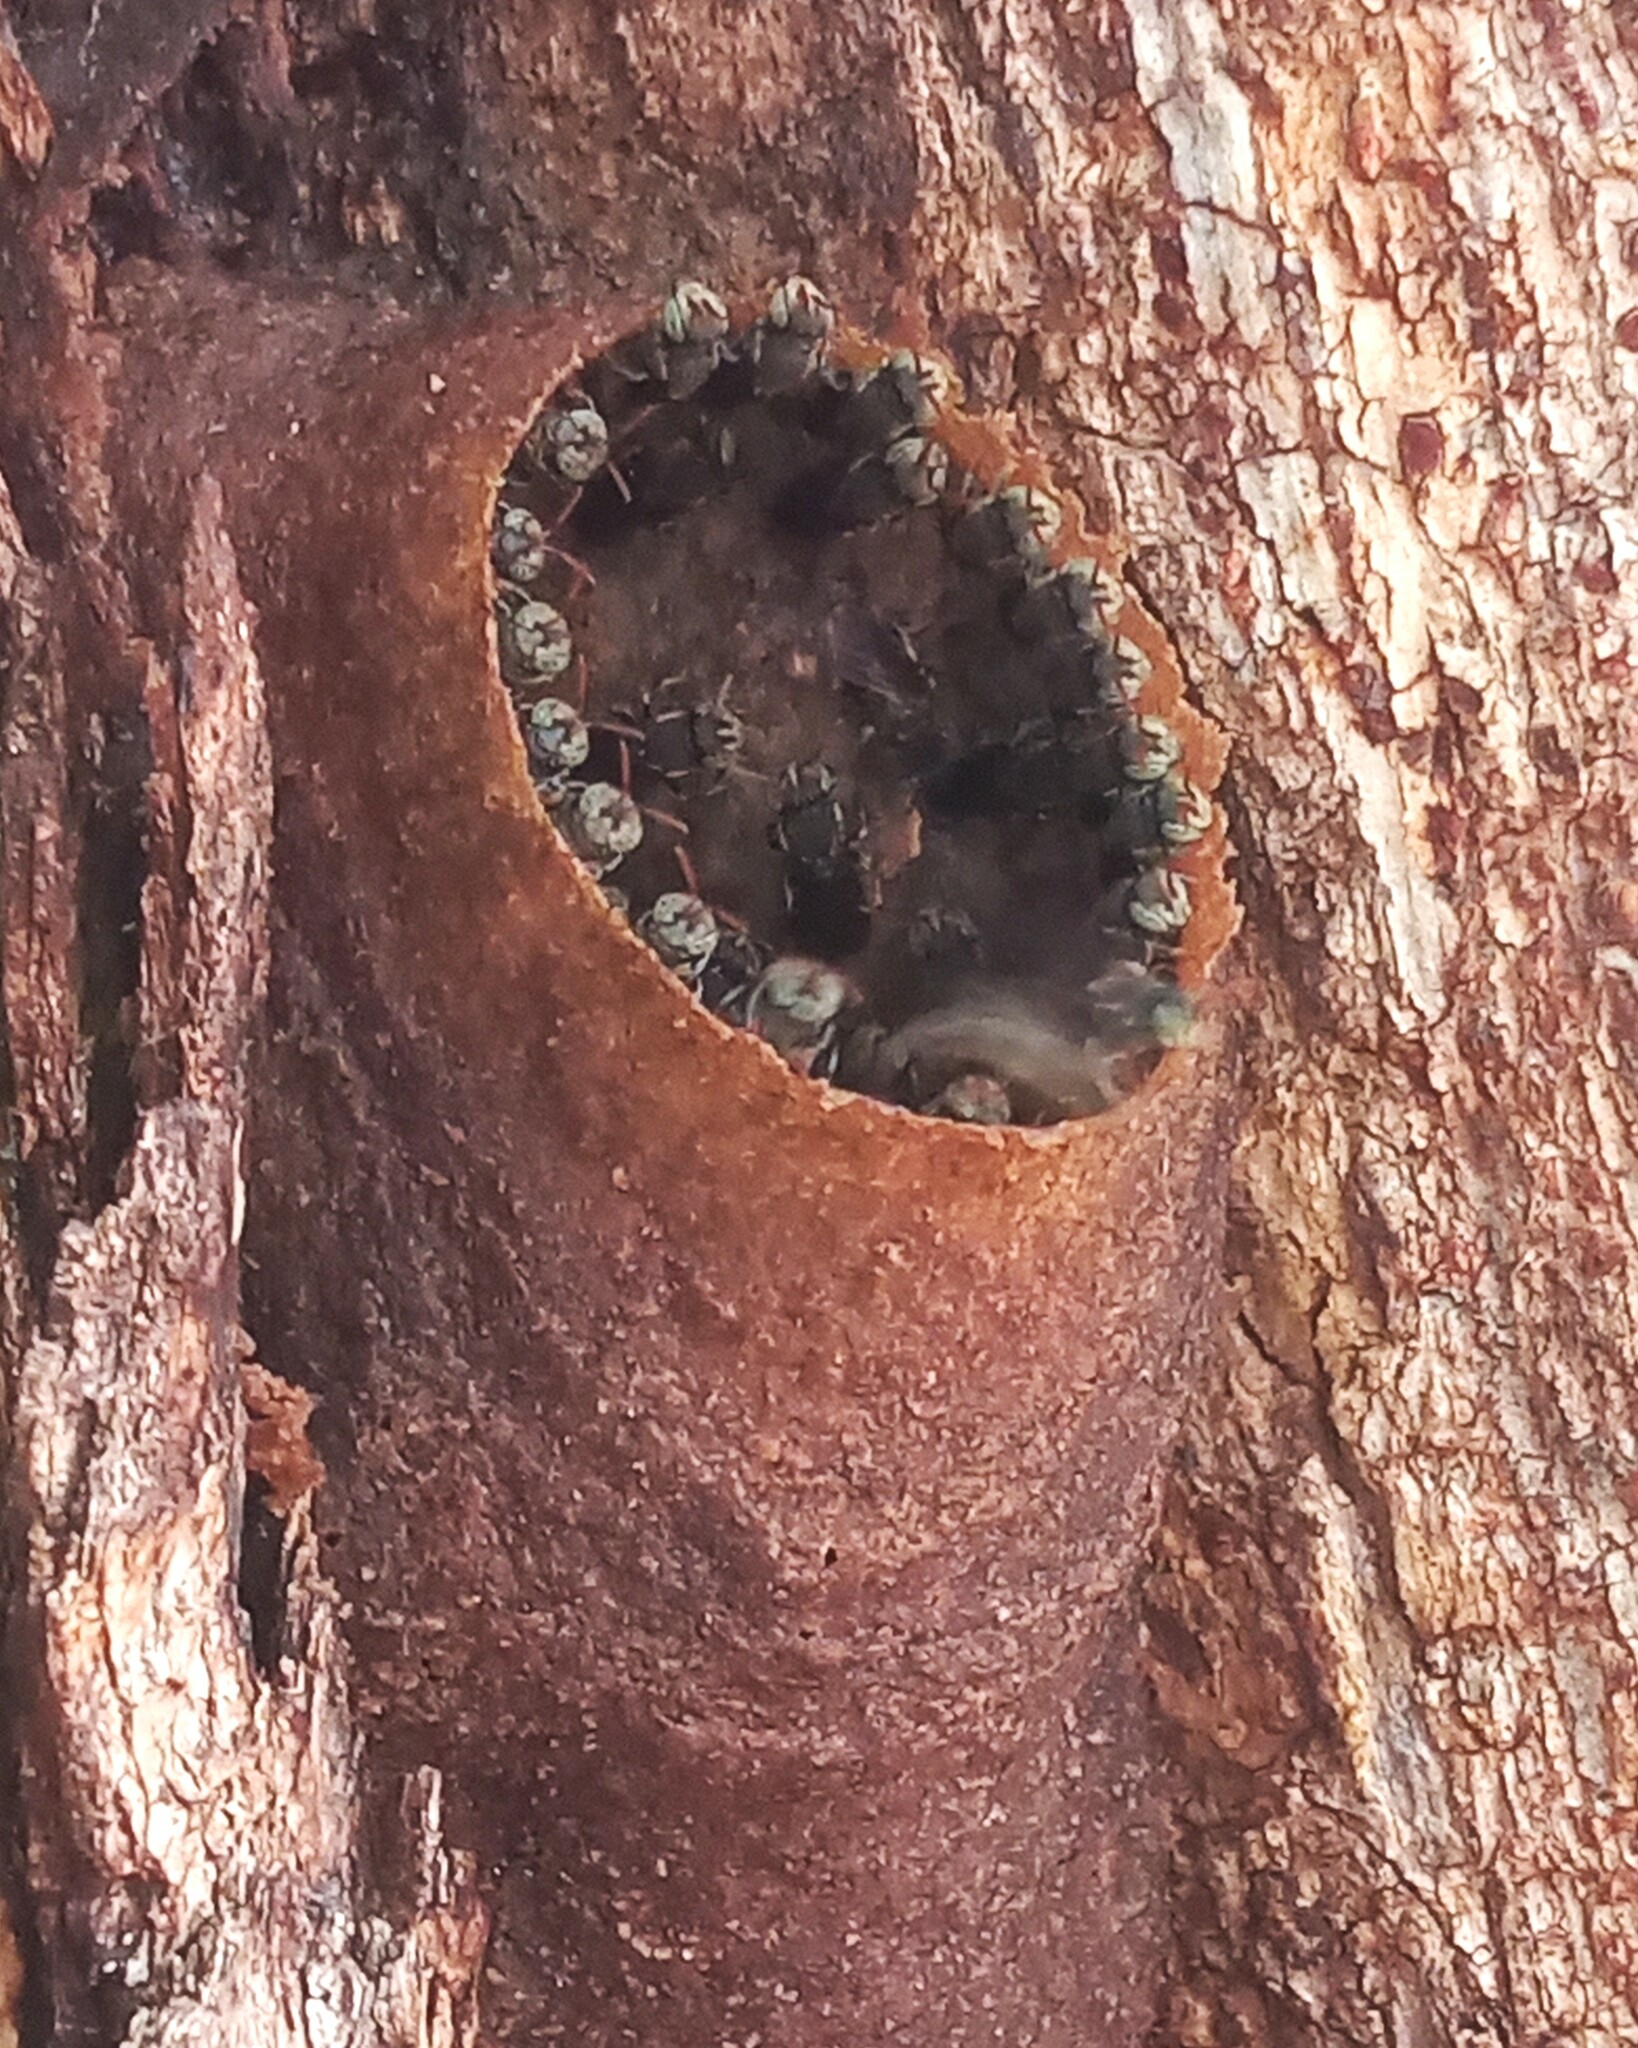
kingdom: Animalia
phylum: Arthropoda
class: Insecta
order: Hymenoptera
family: Apidae
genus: Nannotrigona
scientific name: Nannotrigona testaceicornis
